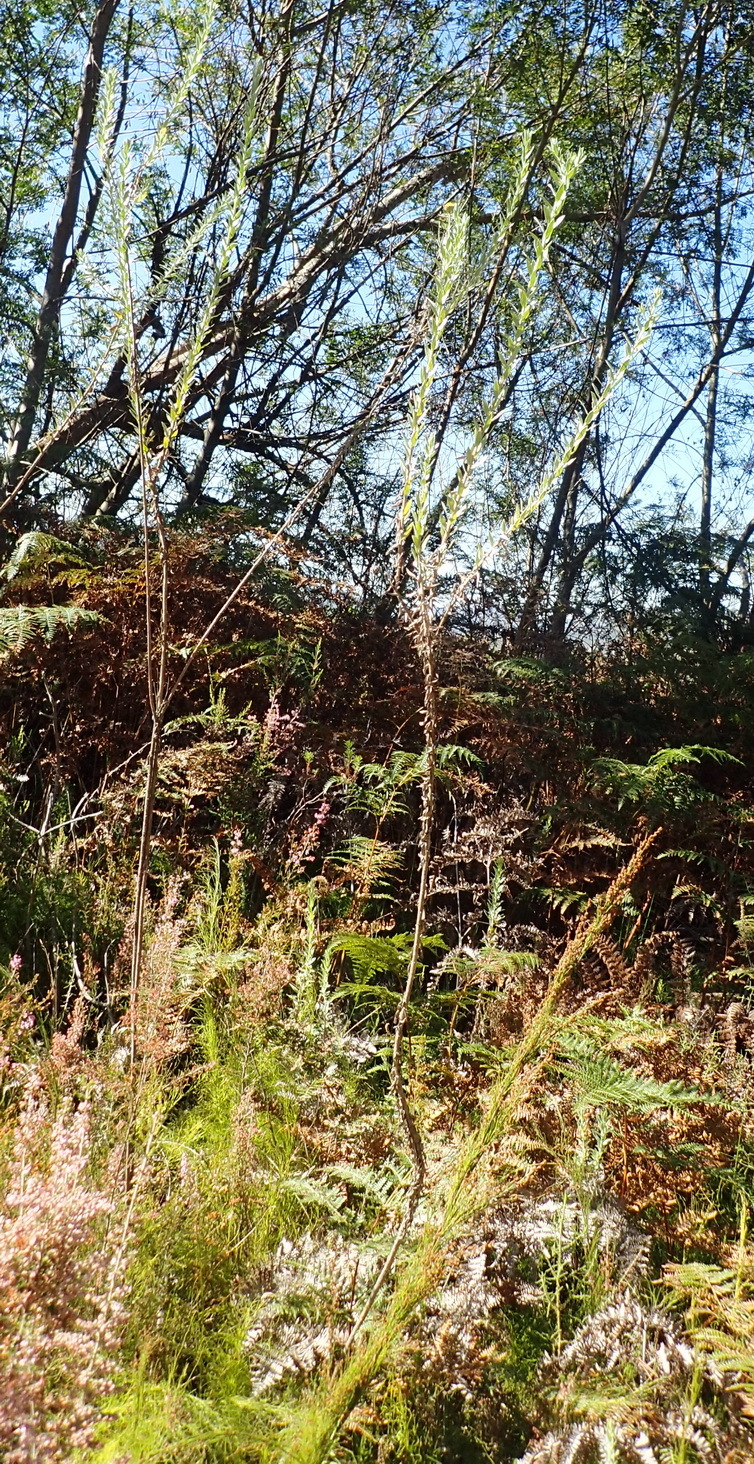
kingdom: Plantae
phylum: Tracheophyta
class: Magnoliopsida
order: Asterales
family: Asteraceae
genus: Schistostephium
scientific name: Schistostephium umbellatum
